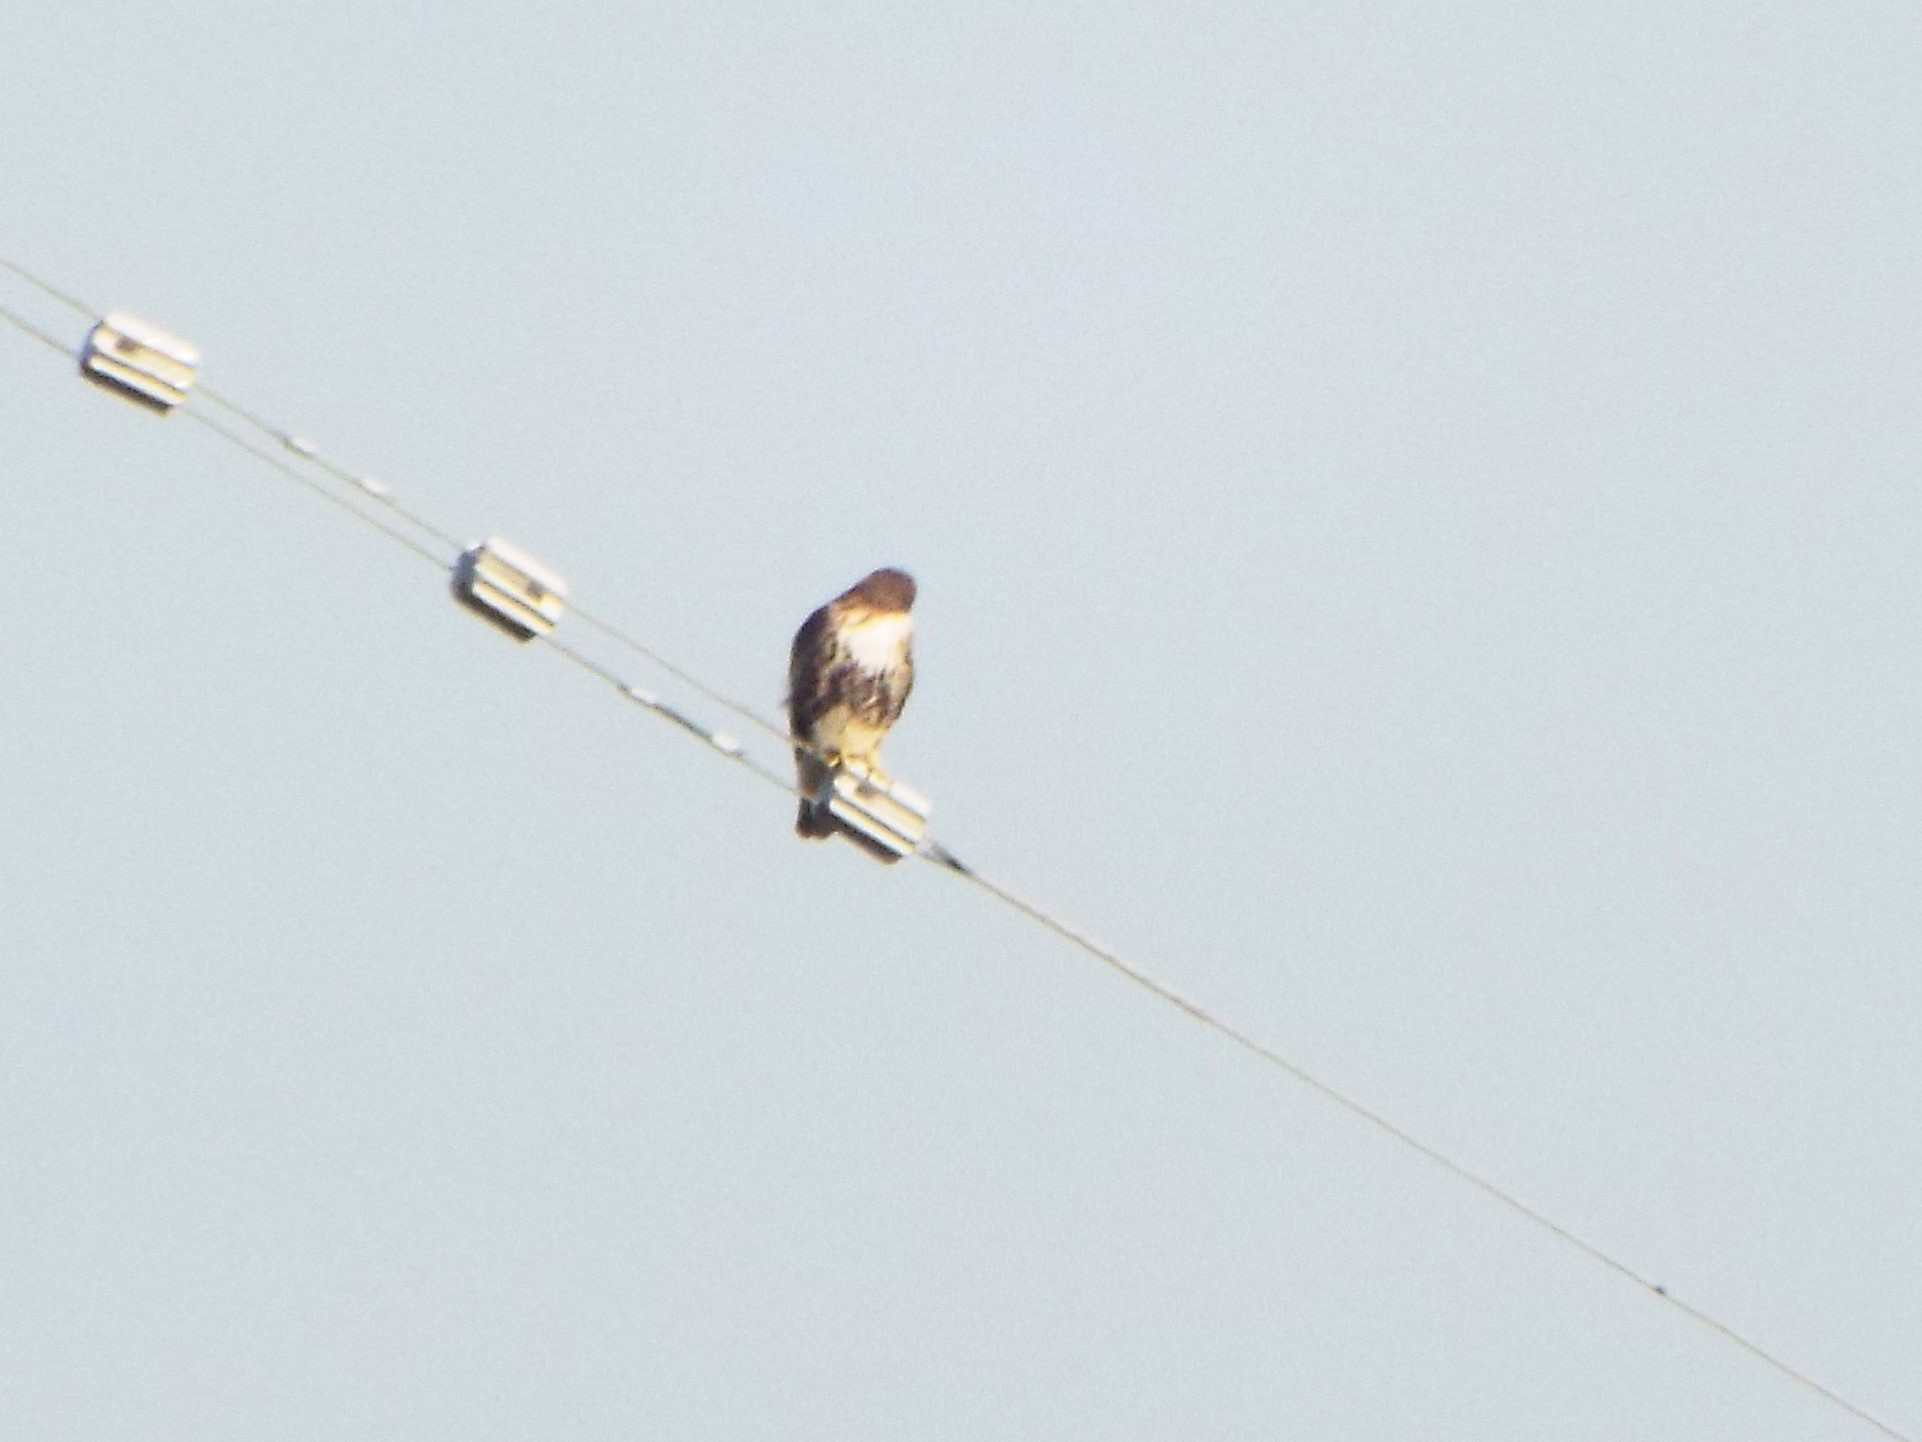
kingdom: Animalia
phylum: Chordata
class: Aves
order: Accipitriformes
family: Accipitridae
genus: Buteo
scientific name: Buteo jamaicensis
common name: Red-tailed hawk
